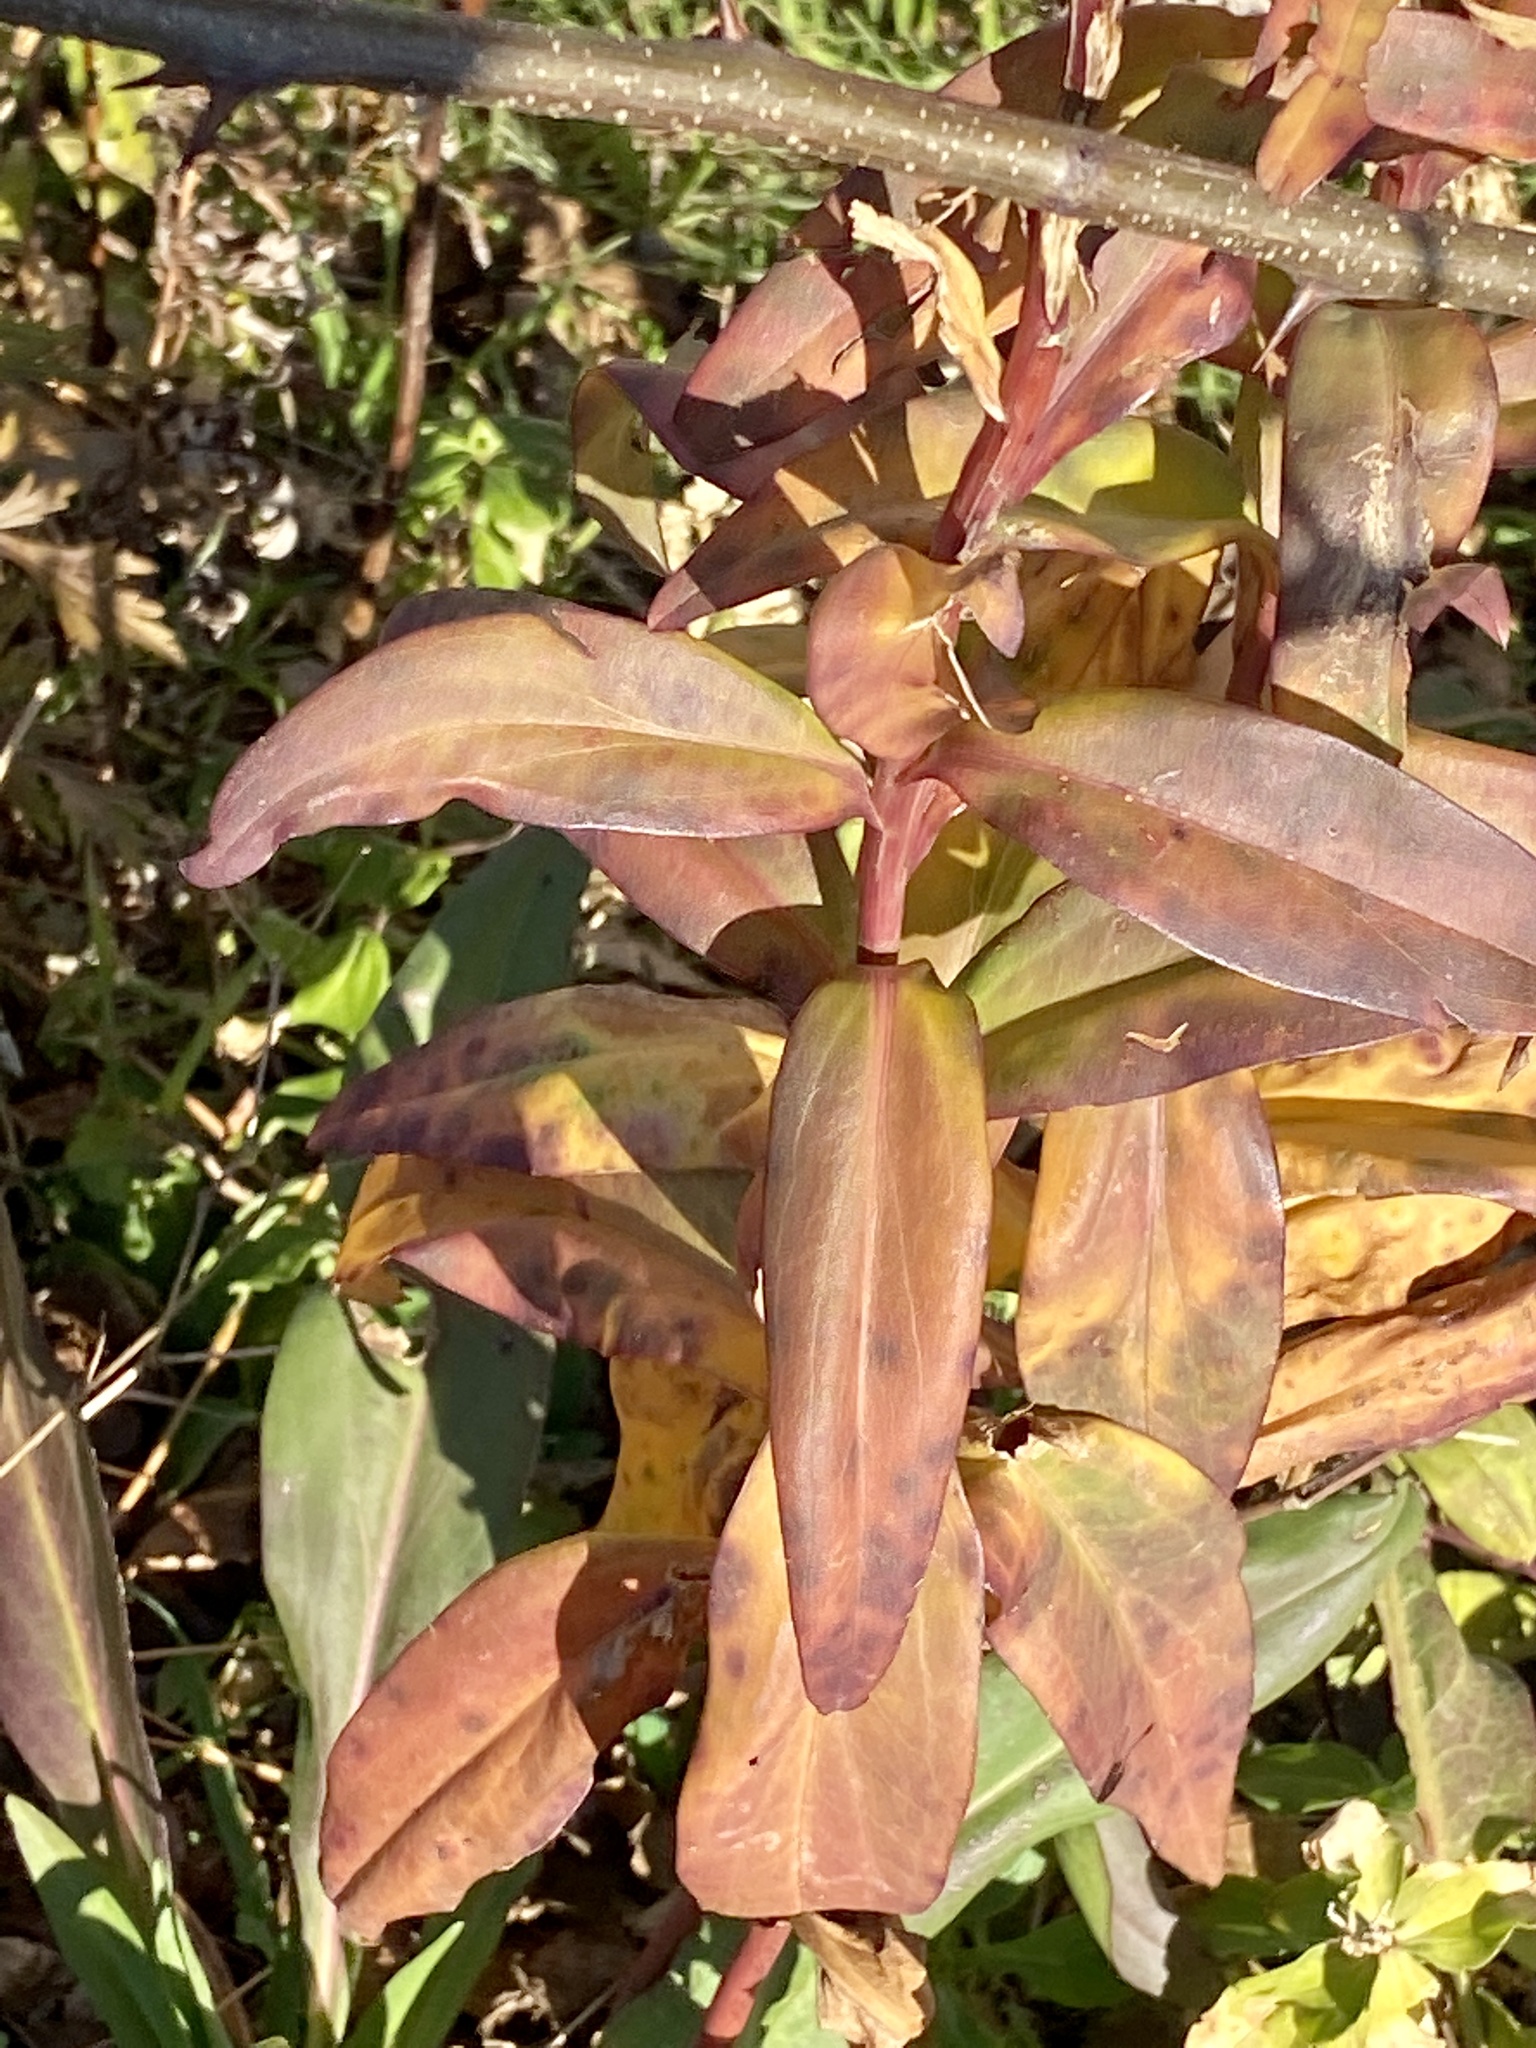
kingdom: Plantae
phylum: Tracheophyta
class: Magnoliopsida
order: Asterales
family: Asteraceae
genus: Solidago
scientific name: Solidago sempervirens
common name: Salt-marsh goldenrod
